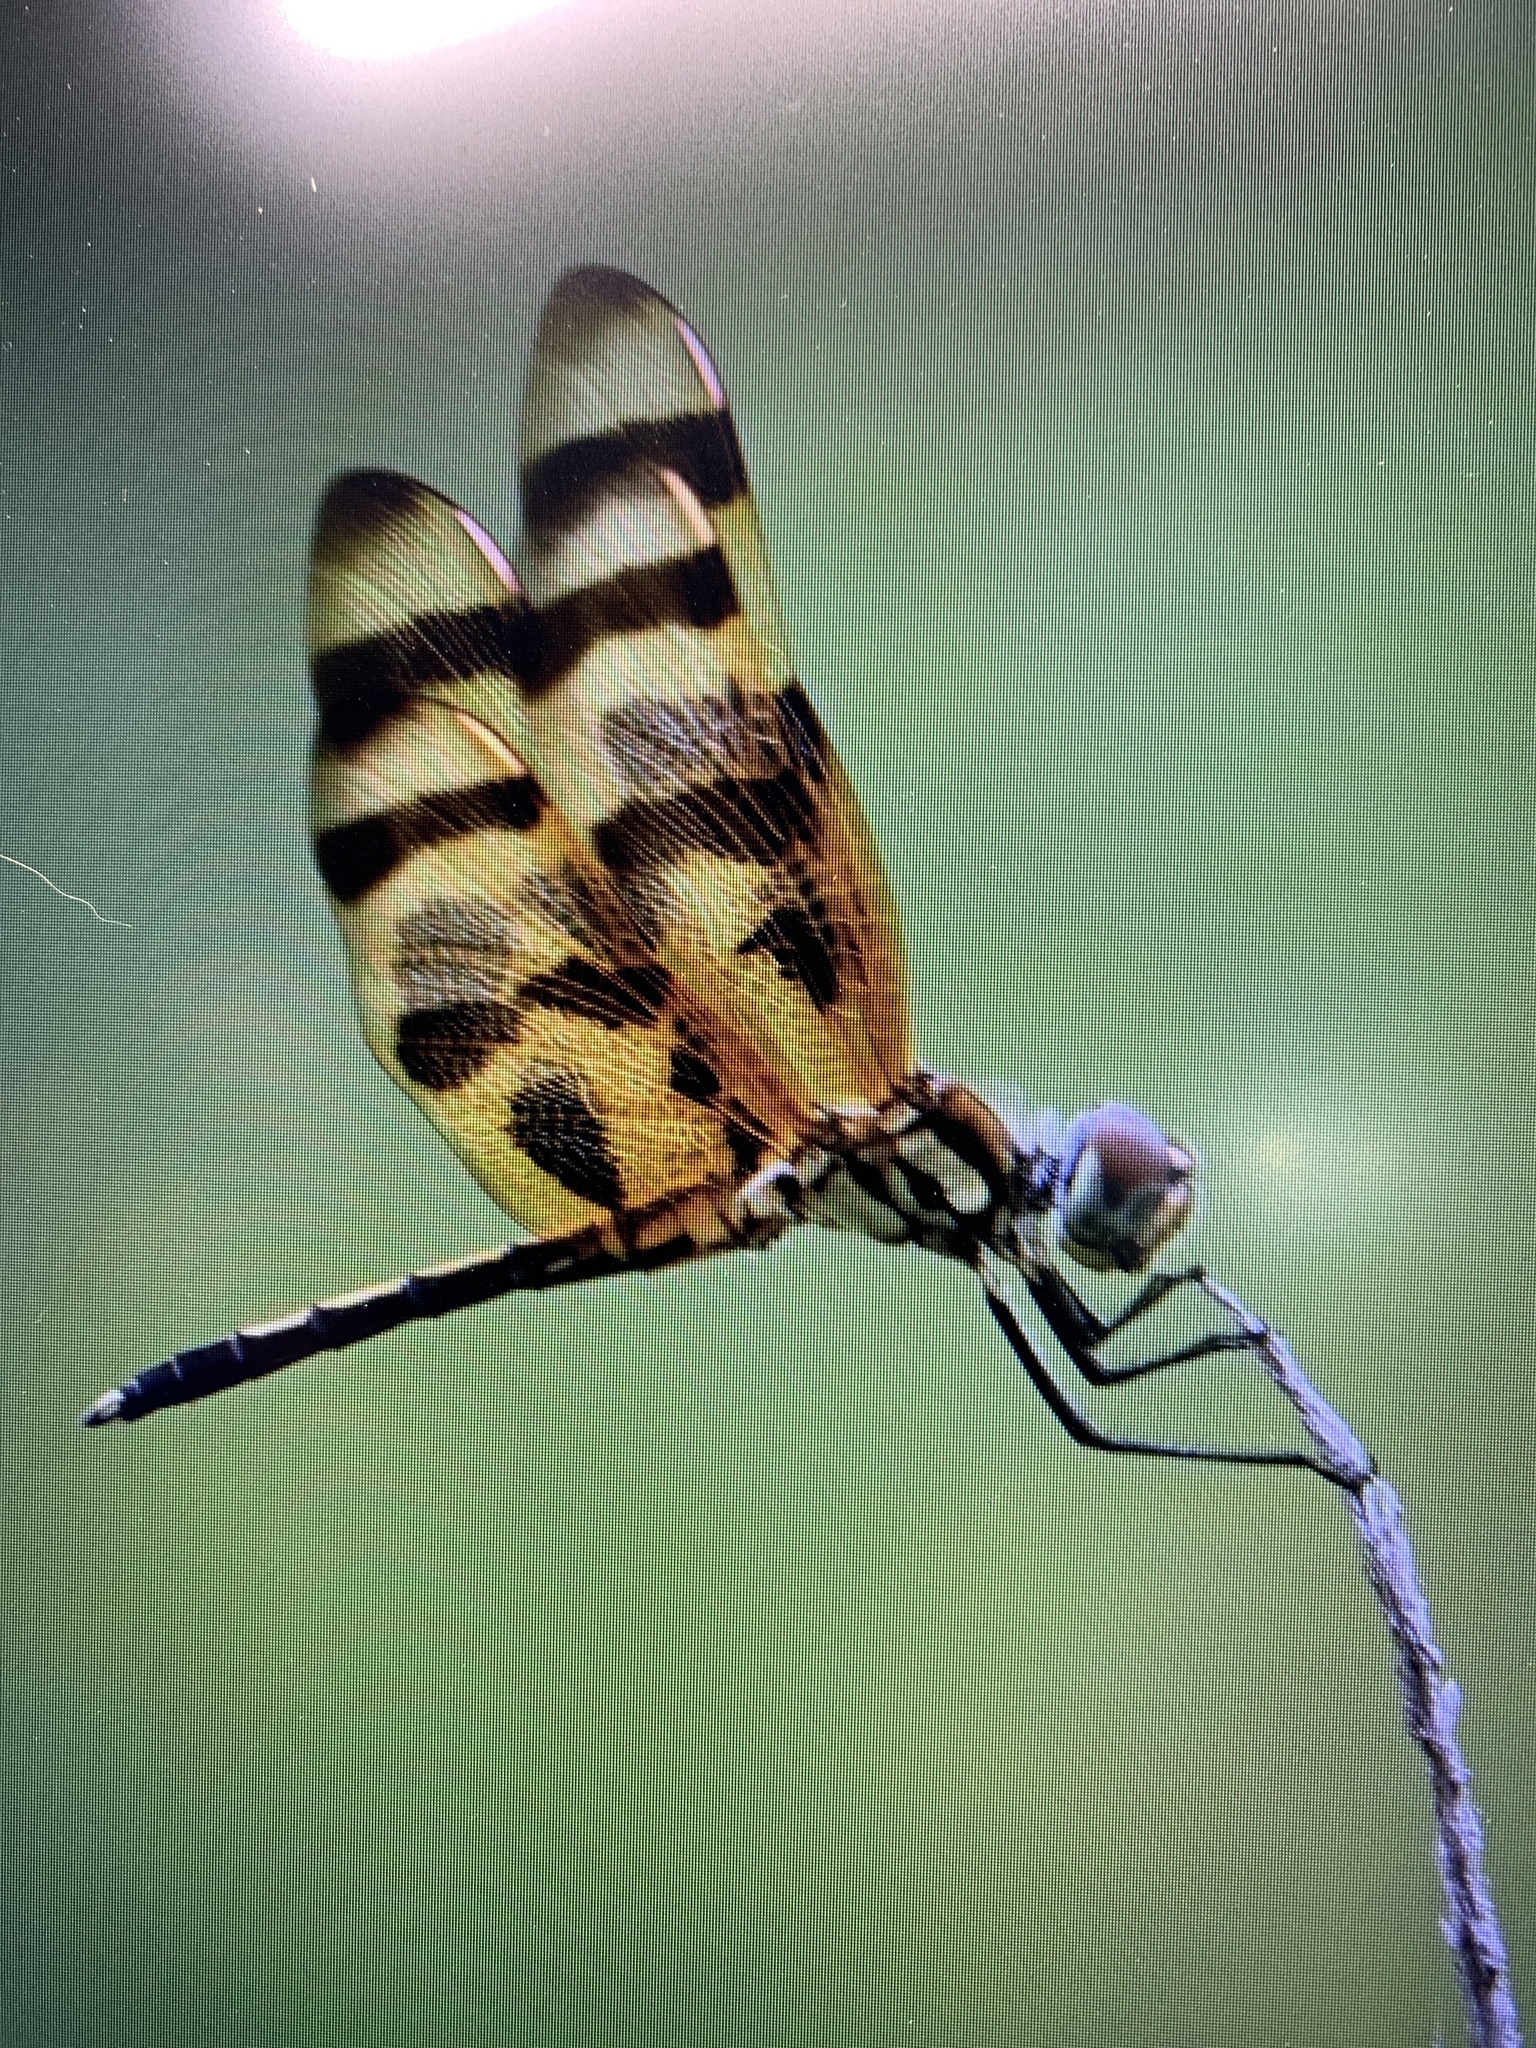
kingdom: Animalia
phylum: Arthropoda
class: Insecta
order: Odonata
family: Libellulidae
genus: Celithemis
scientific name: Celithemis eponina
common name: Halloween pennant
